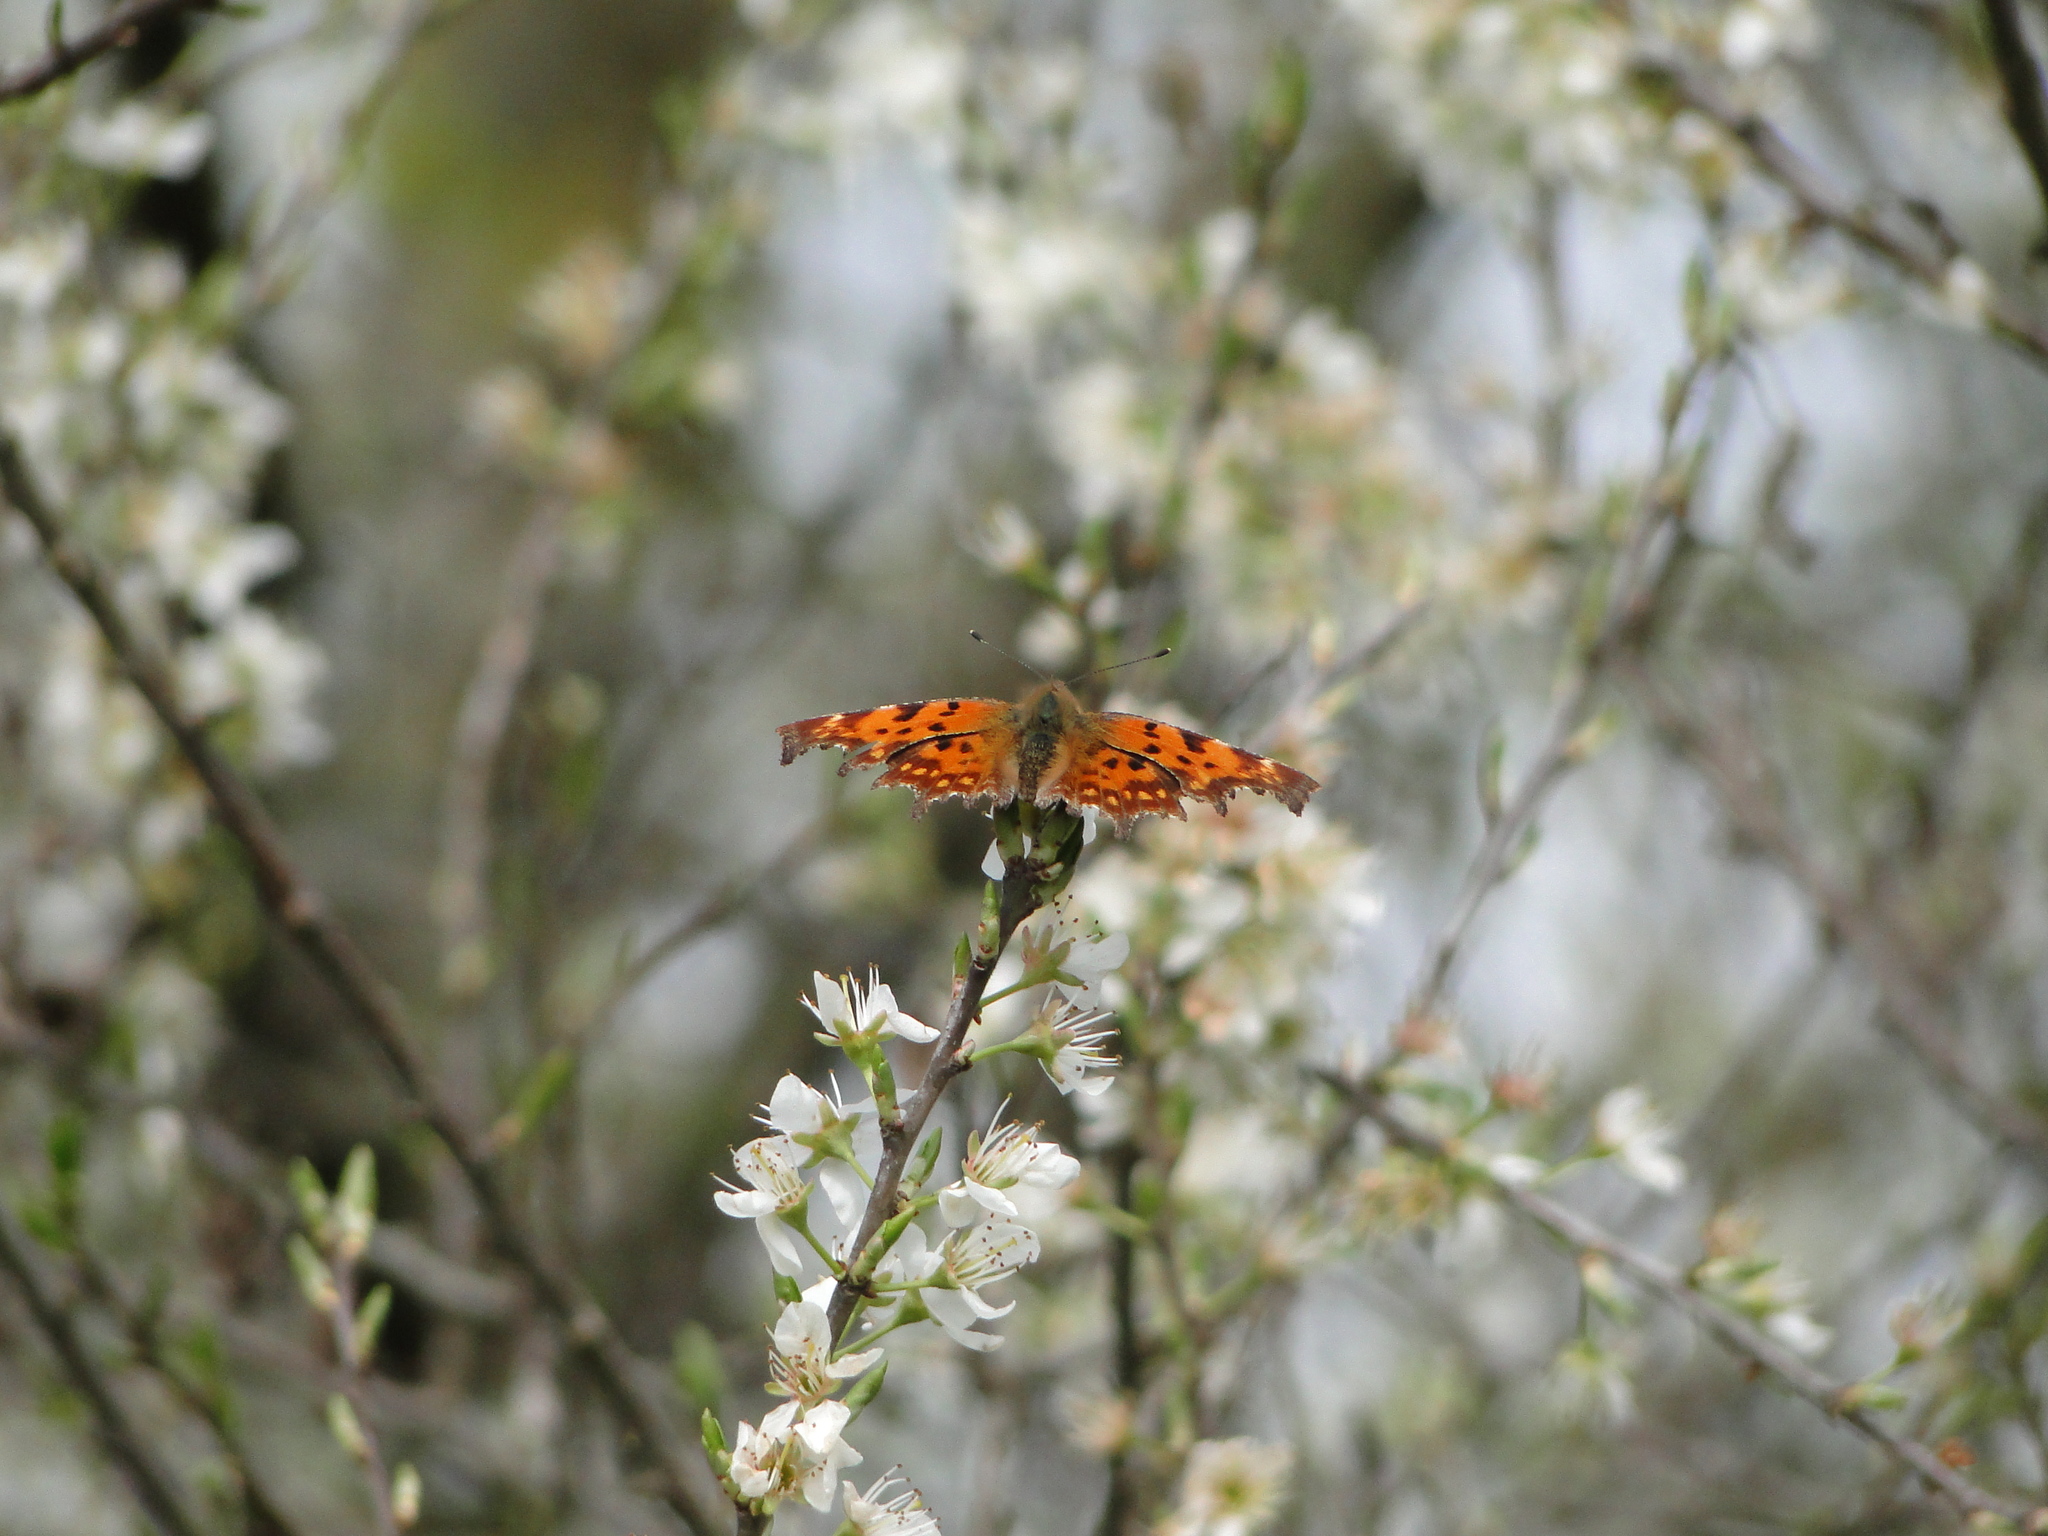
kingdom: Animalia
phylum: Arthropoda
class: Insecta
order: Lepidoptera
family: Nymphalidae
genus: Polygonia
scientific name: Polygonia c-album
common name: Comma
